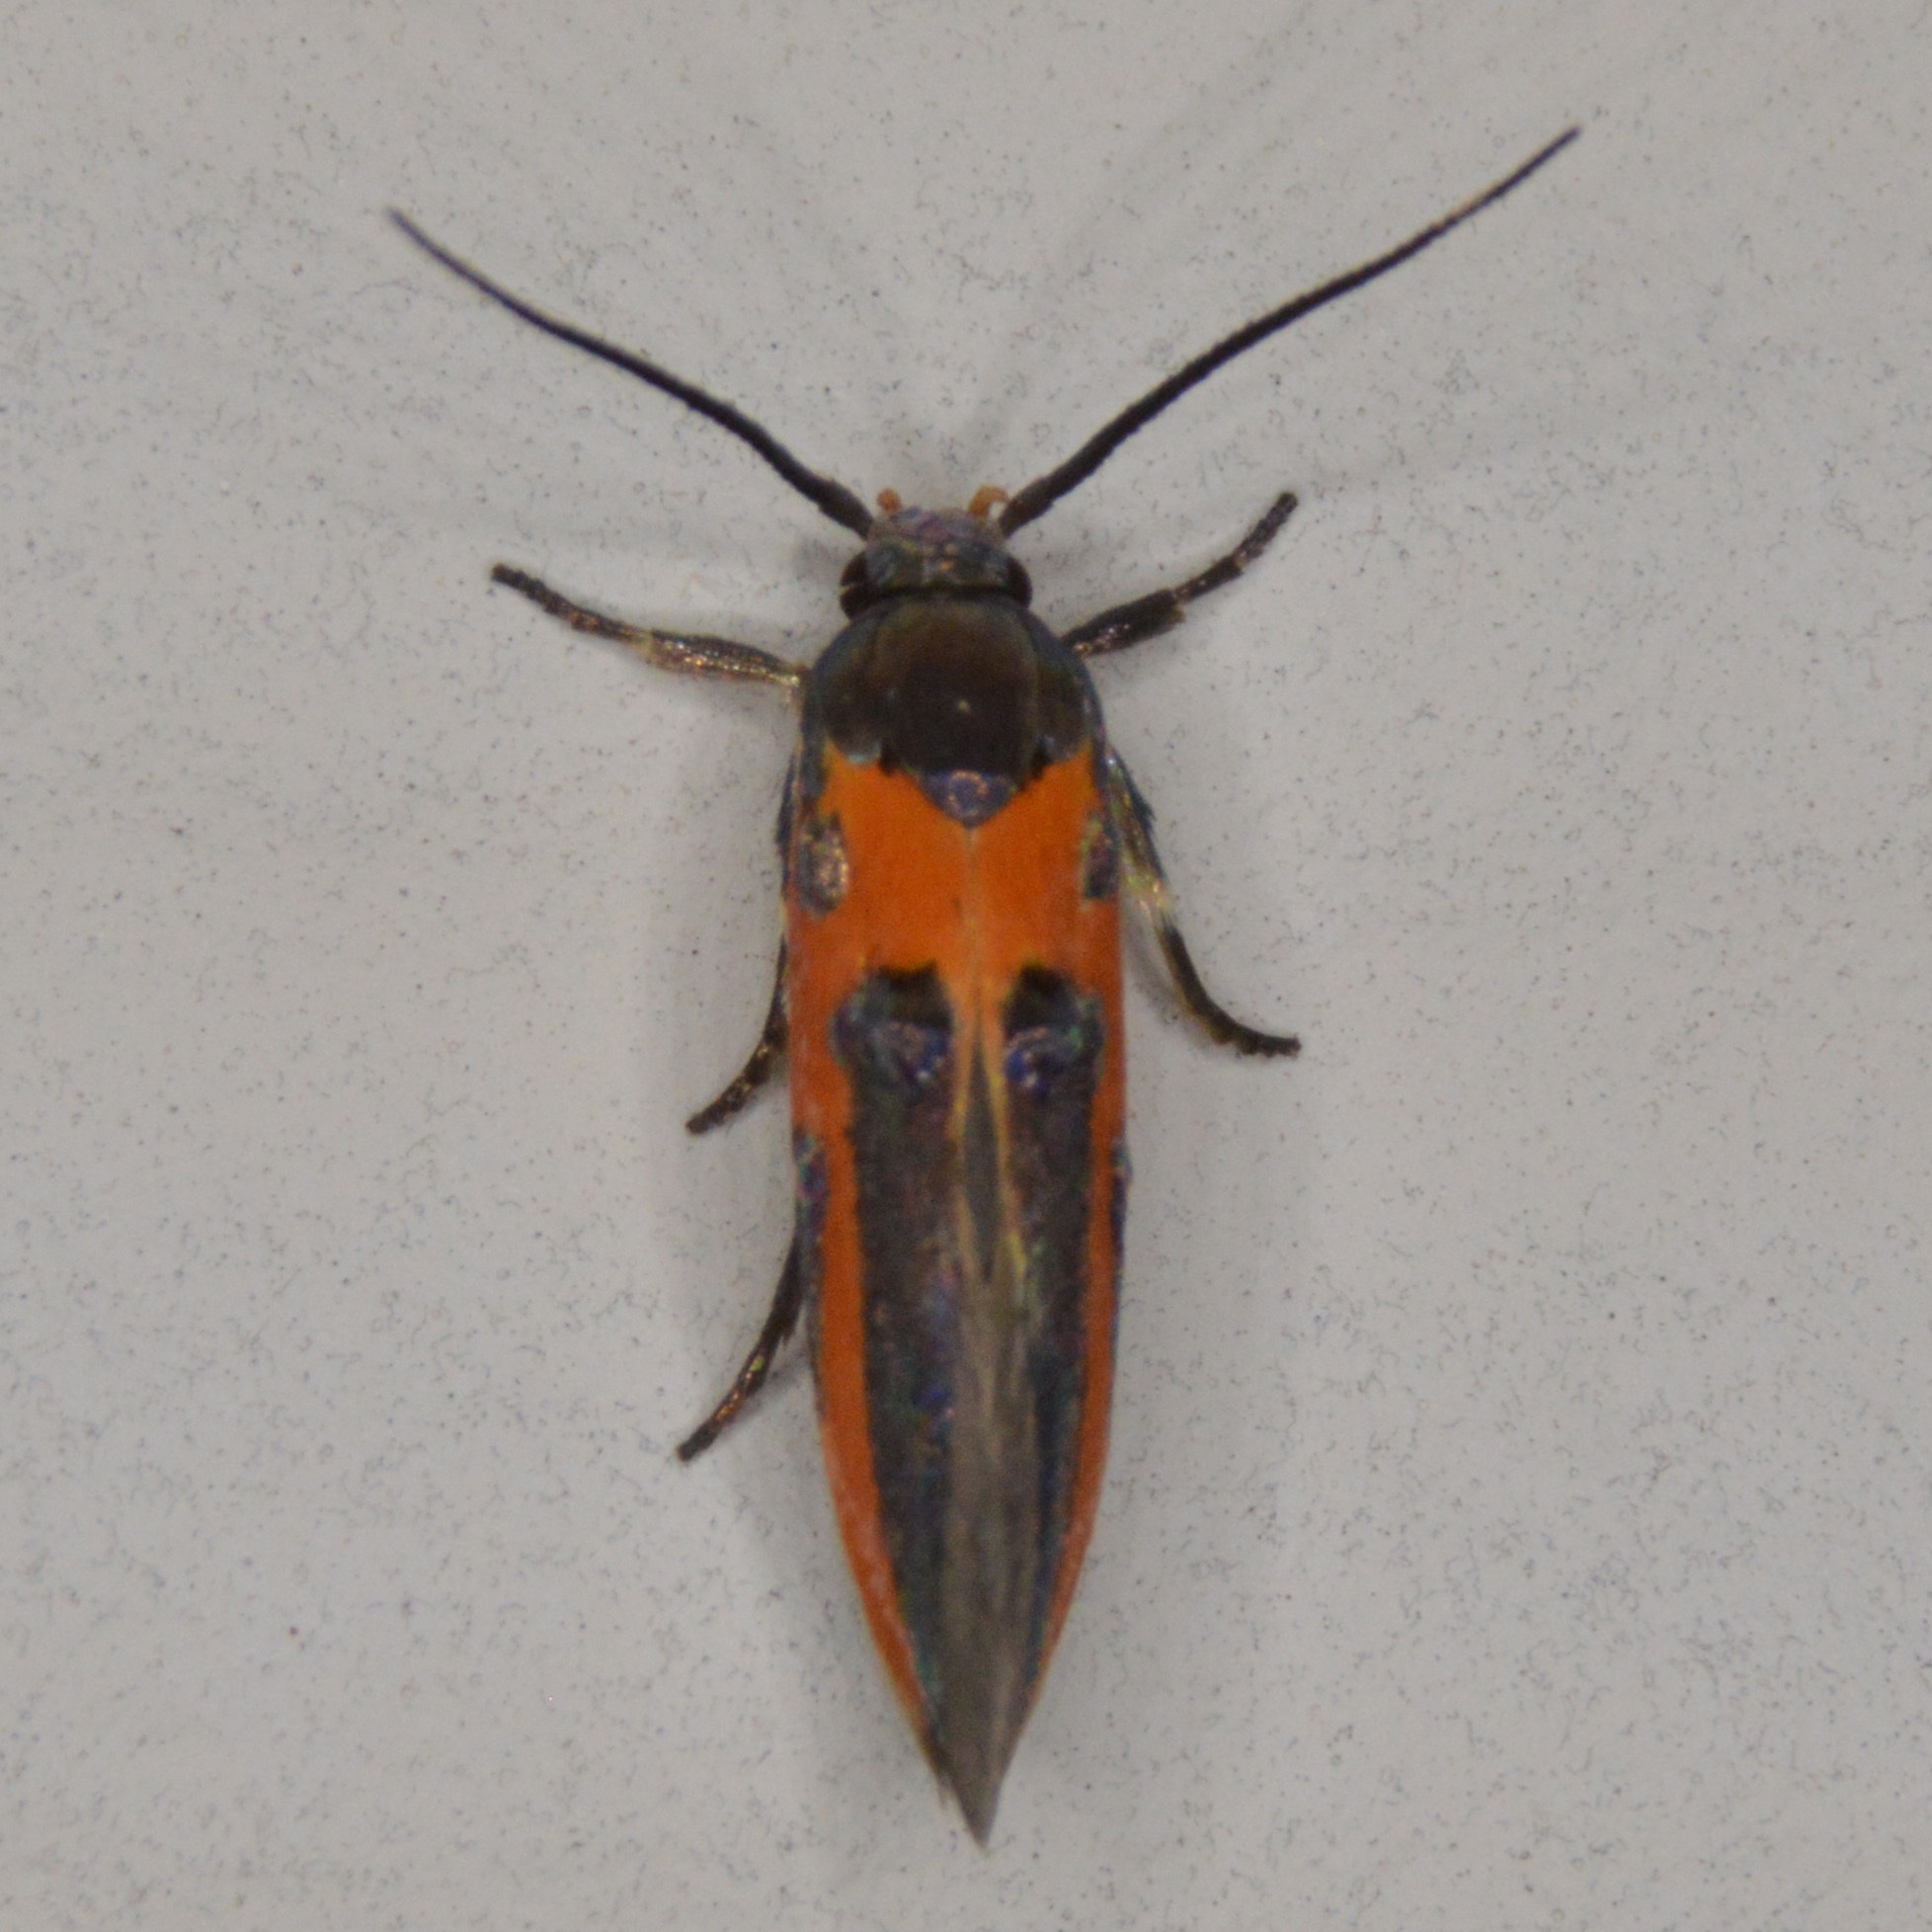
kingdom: Animalia
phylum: Arthropoda
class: Insecta
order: Lepidoptera
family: Cosmopterigidae
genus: Euclemensia
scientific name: Euclemensia bassettella
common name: Kermes scale moth
